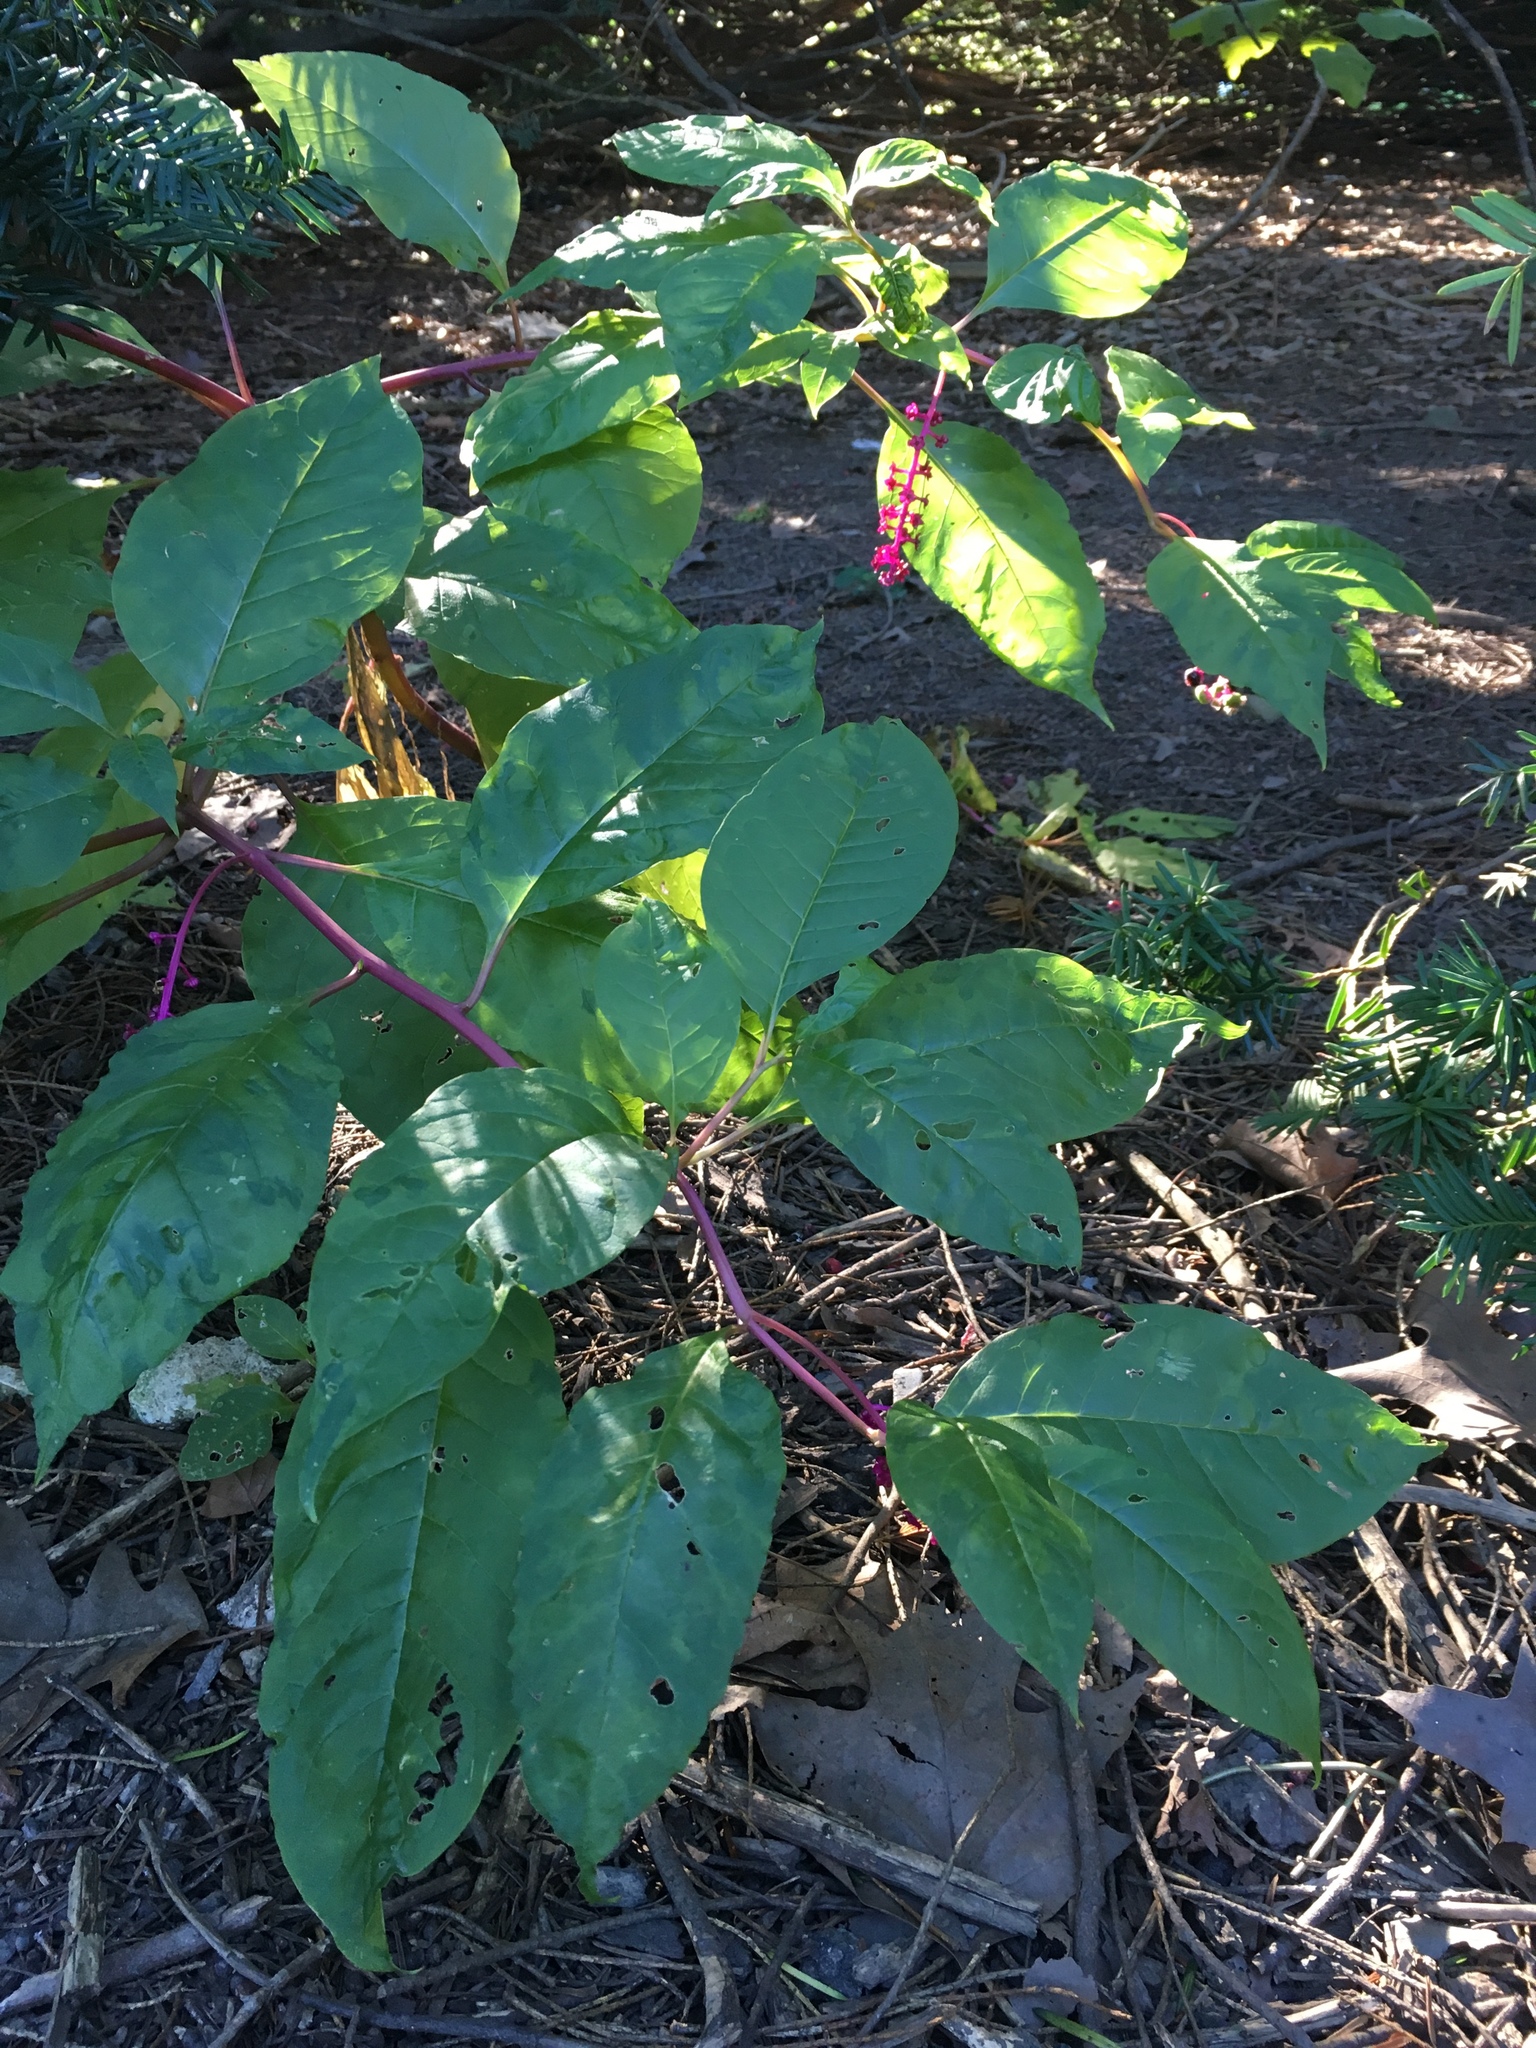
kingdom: Plantae
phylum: Tracheophyta
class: Magnoliopsida
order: Caryophyllales
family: Phytolaccaceae
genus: Phytolacca
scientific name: Phytolacca americana
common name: American pokeweed
